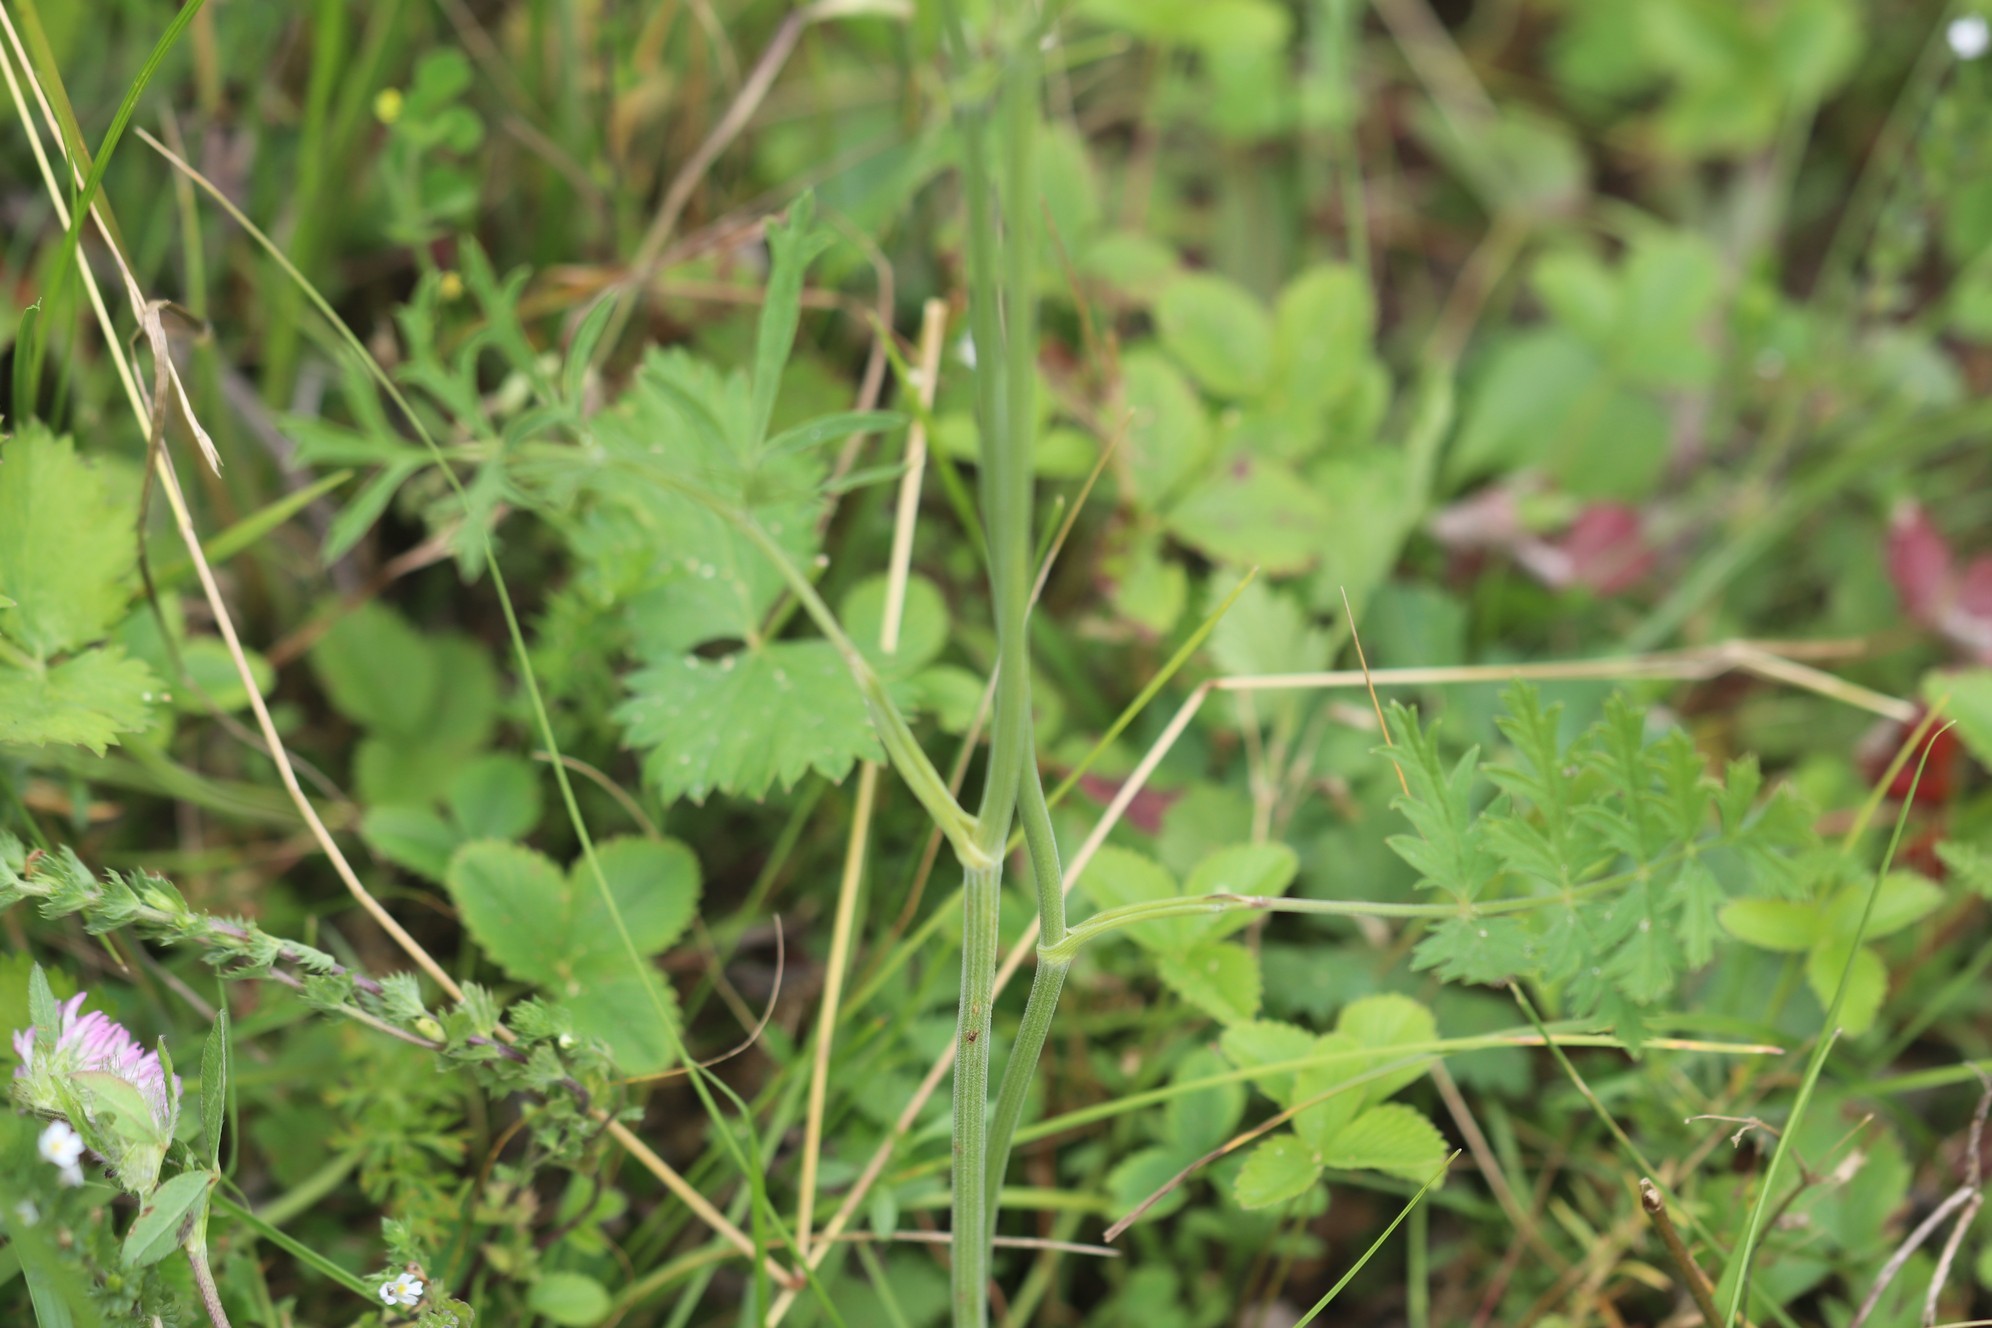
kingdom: Plantae
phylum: Tracheophyta
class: Magnoliopsida
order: Apiales
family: Apiaceae
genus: Pimpinella
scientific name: Pimpinella saxifraga
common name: Burnet-saxifrage
